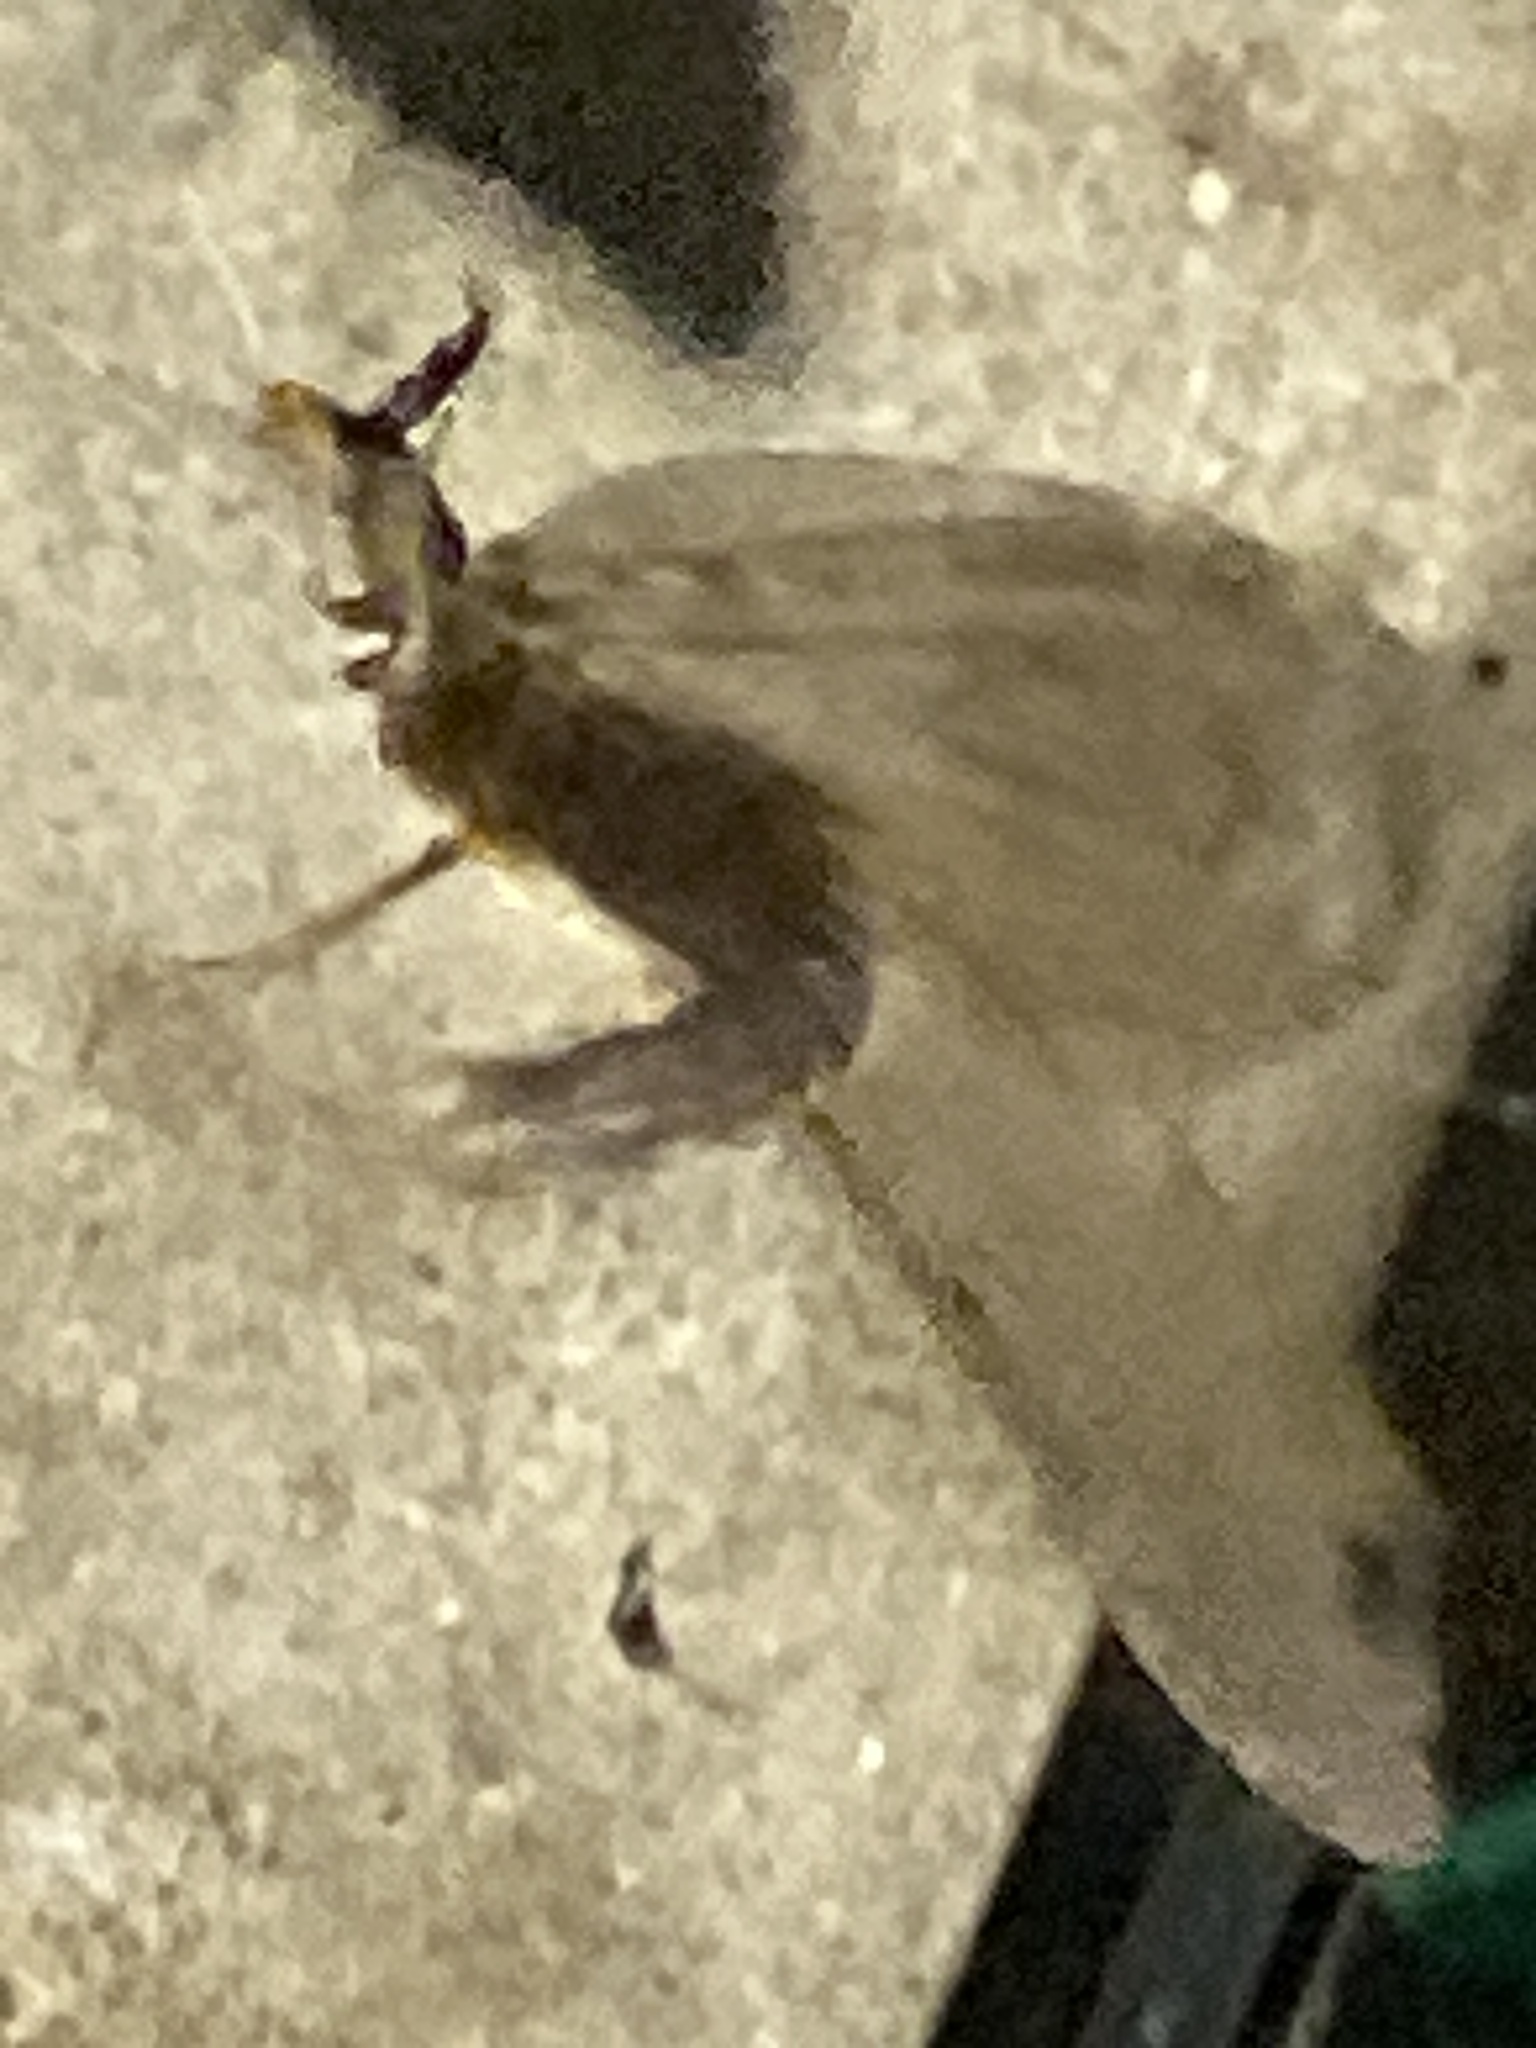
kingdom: Animalia
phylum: Arthropoda
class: Insecta
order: Megaloptera
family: Corydalidae
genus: Chauliodes
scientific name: Chauliodes pectinicornis
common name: Summer fishfly
